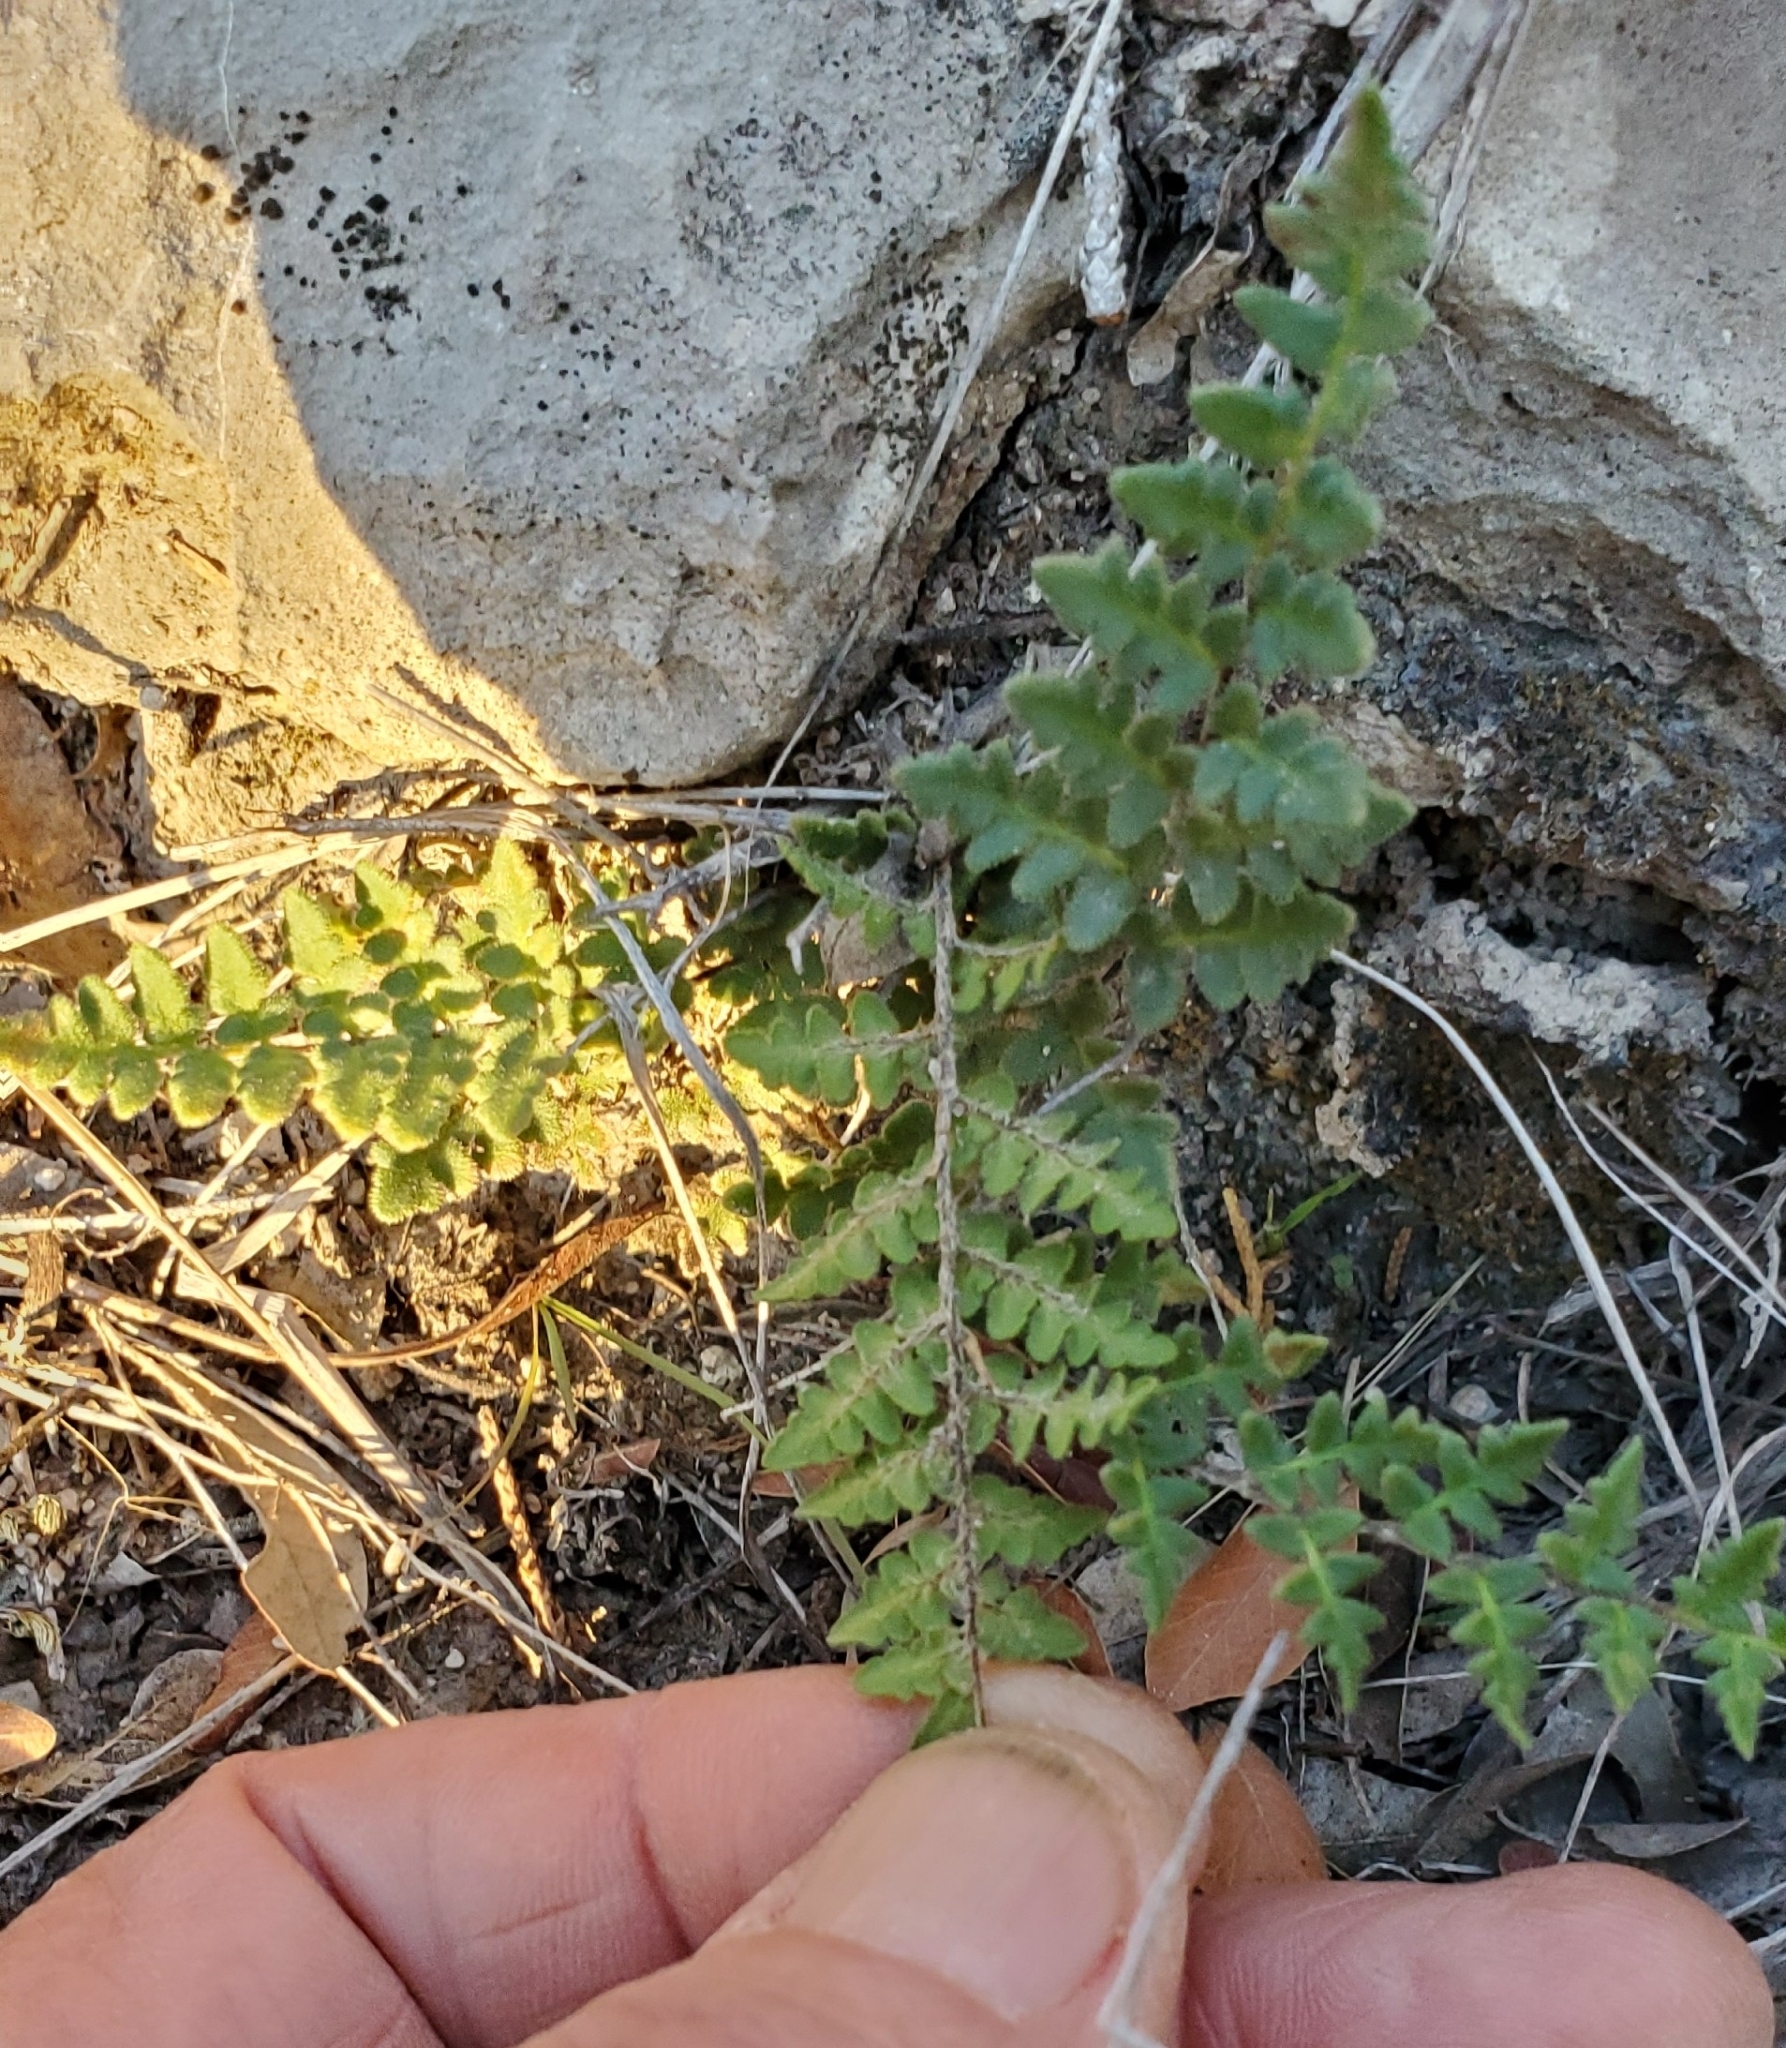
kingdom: Plantae
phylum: Tracheophyta
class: Polypodiopsida
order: Polypodiales
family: Pteridaceae
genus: Myriopteris
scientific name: Myriopteris scabra
